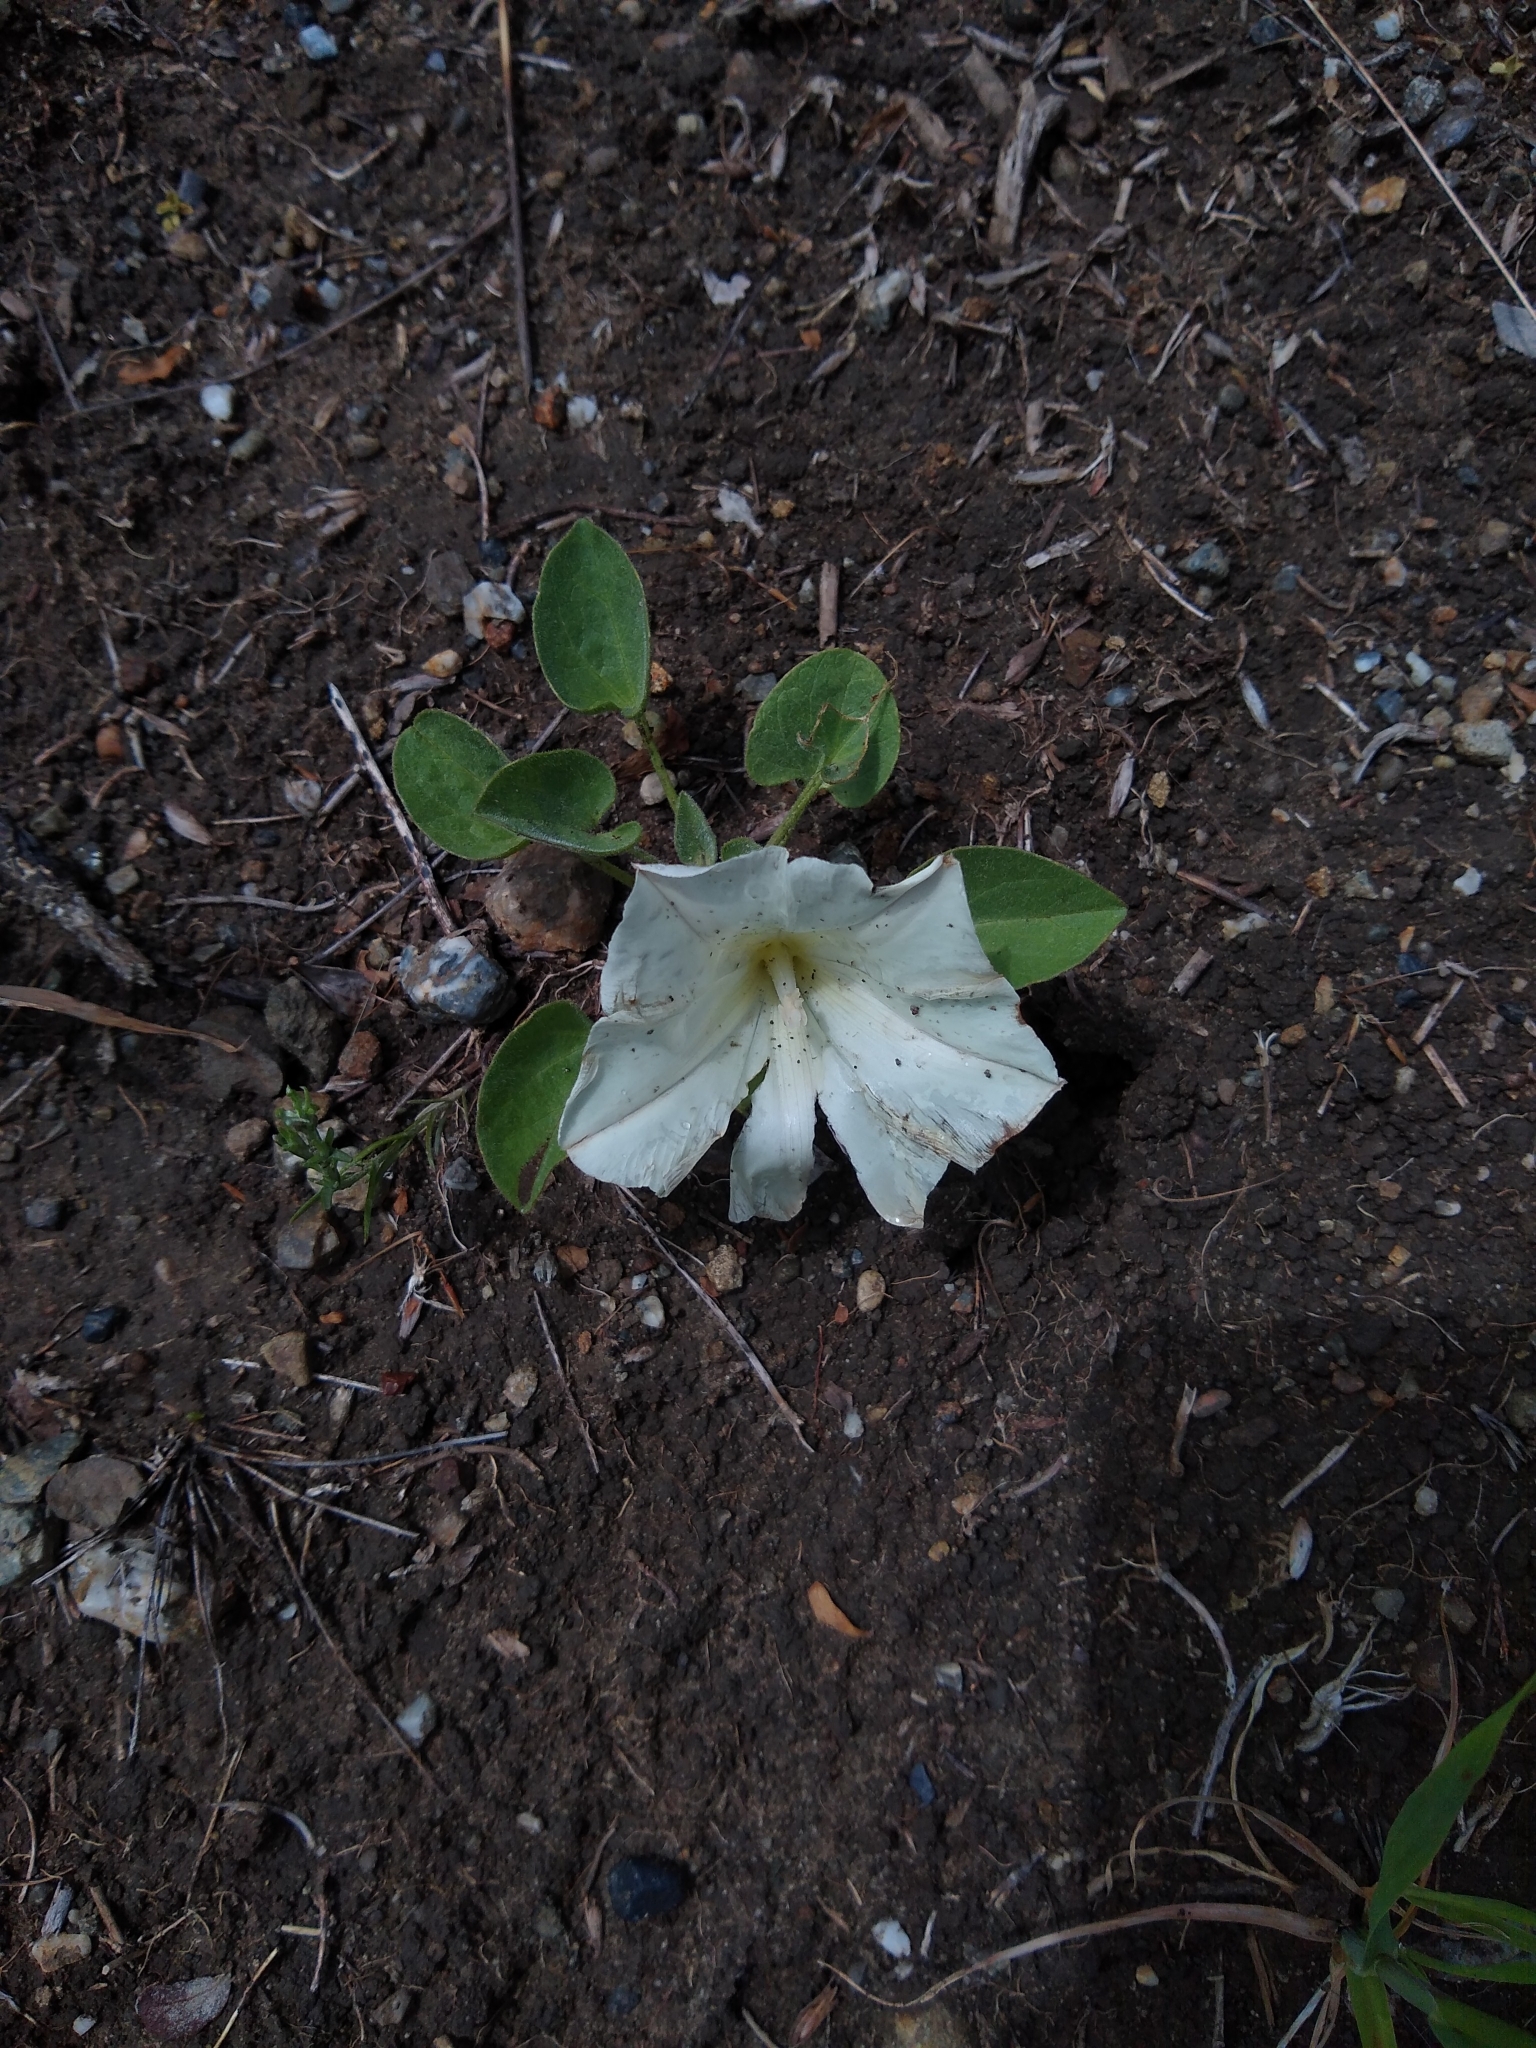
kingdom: Plantae
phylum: Tracheophyta
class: Magnoliopsida
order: Solanales
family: Convolvulaceae
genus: Calystegia
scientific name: Calystegia subacaulis
